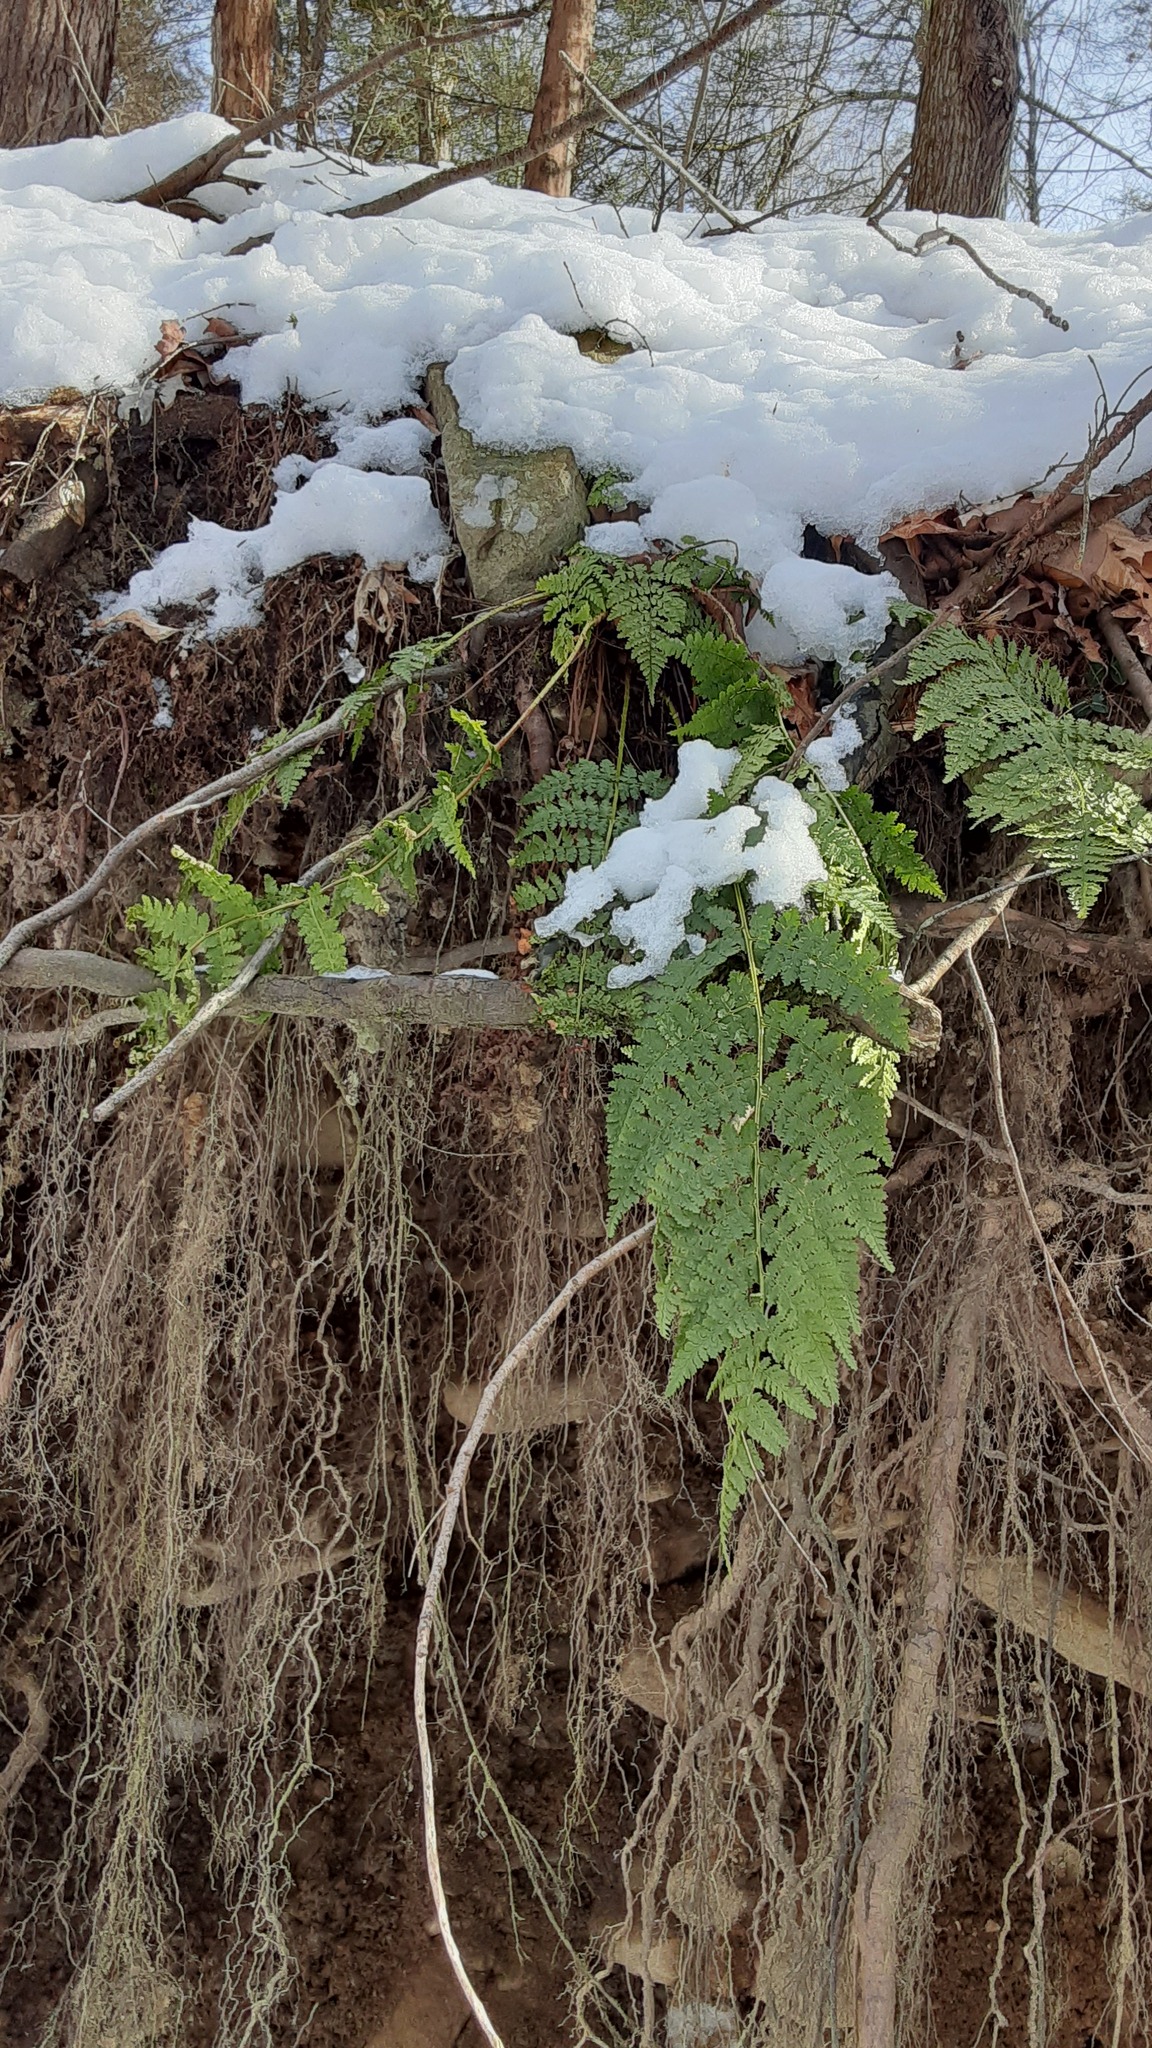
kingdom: Plantae
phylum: Tracheophyta
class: Polypodiopsida
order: Polypodiales
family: Dryopteridaceae
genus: Dryopteris
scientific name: Dryopteris intermedia
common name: Evergreen wood fern
